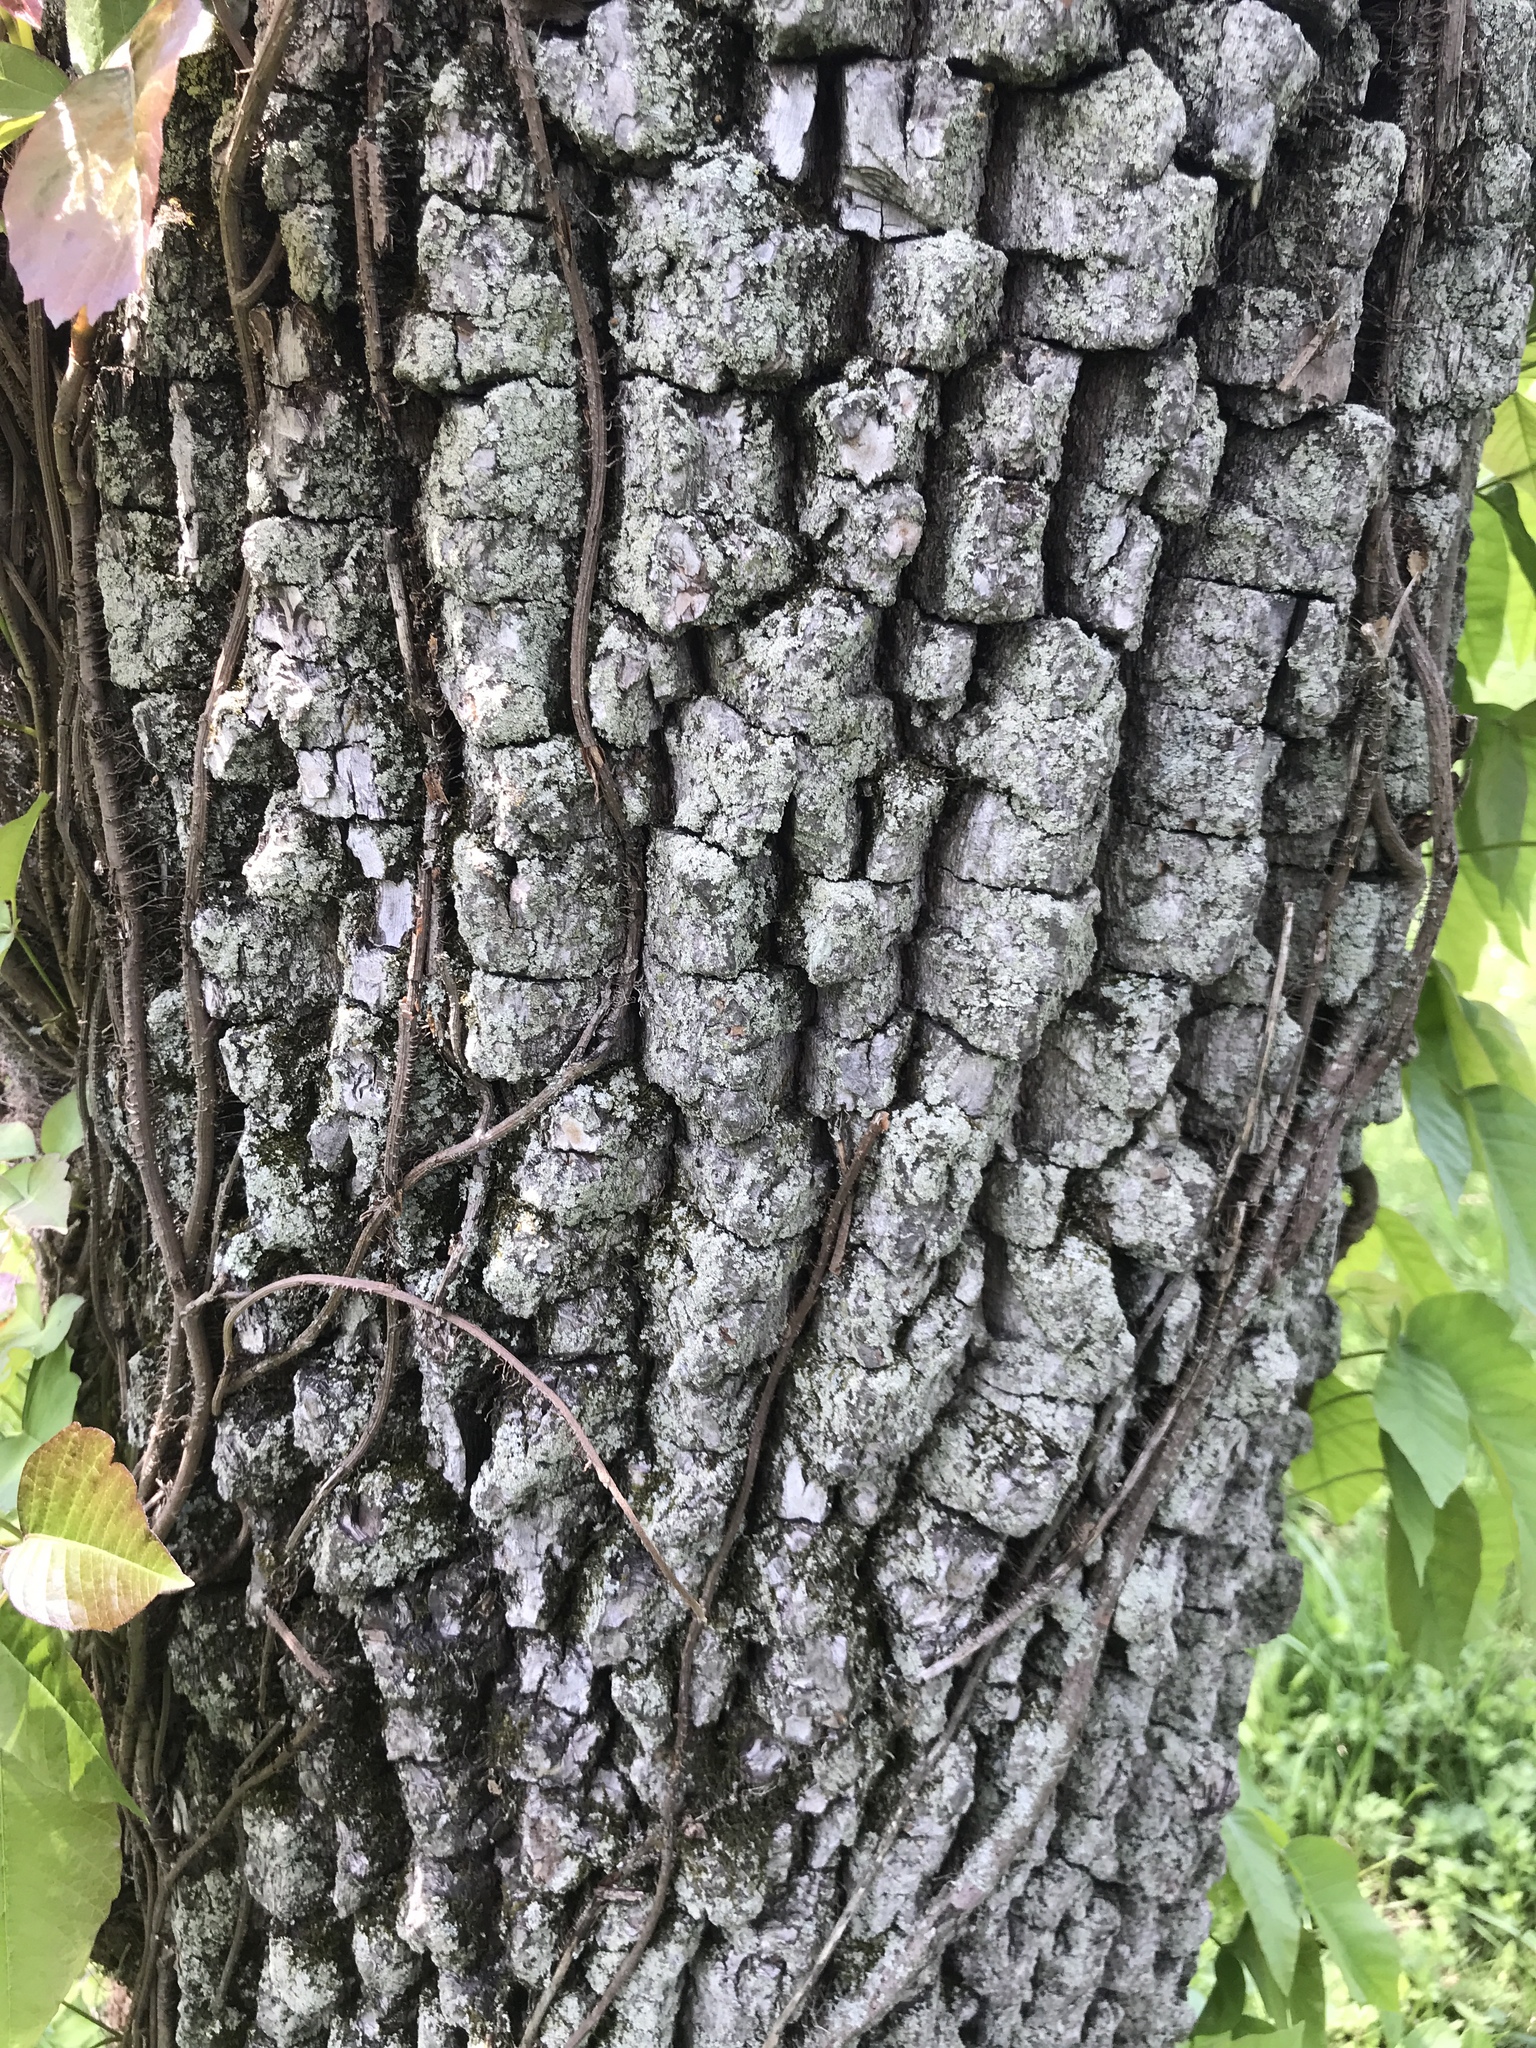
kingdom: Plantae
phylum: Tracheophyta
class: Magnoliopsida
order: Ericales
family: Ebenaceae
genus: Diospyros
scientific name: Diospyros virginiana
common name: Persimmon
